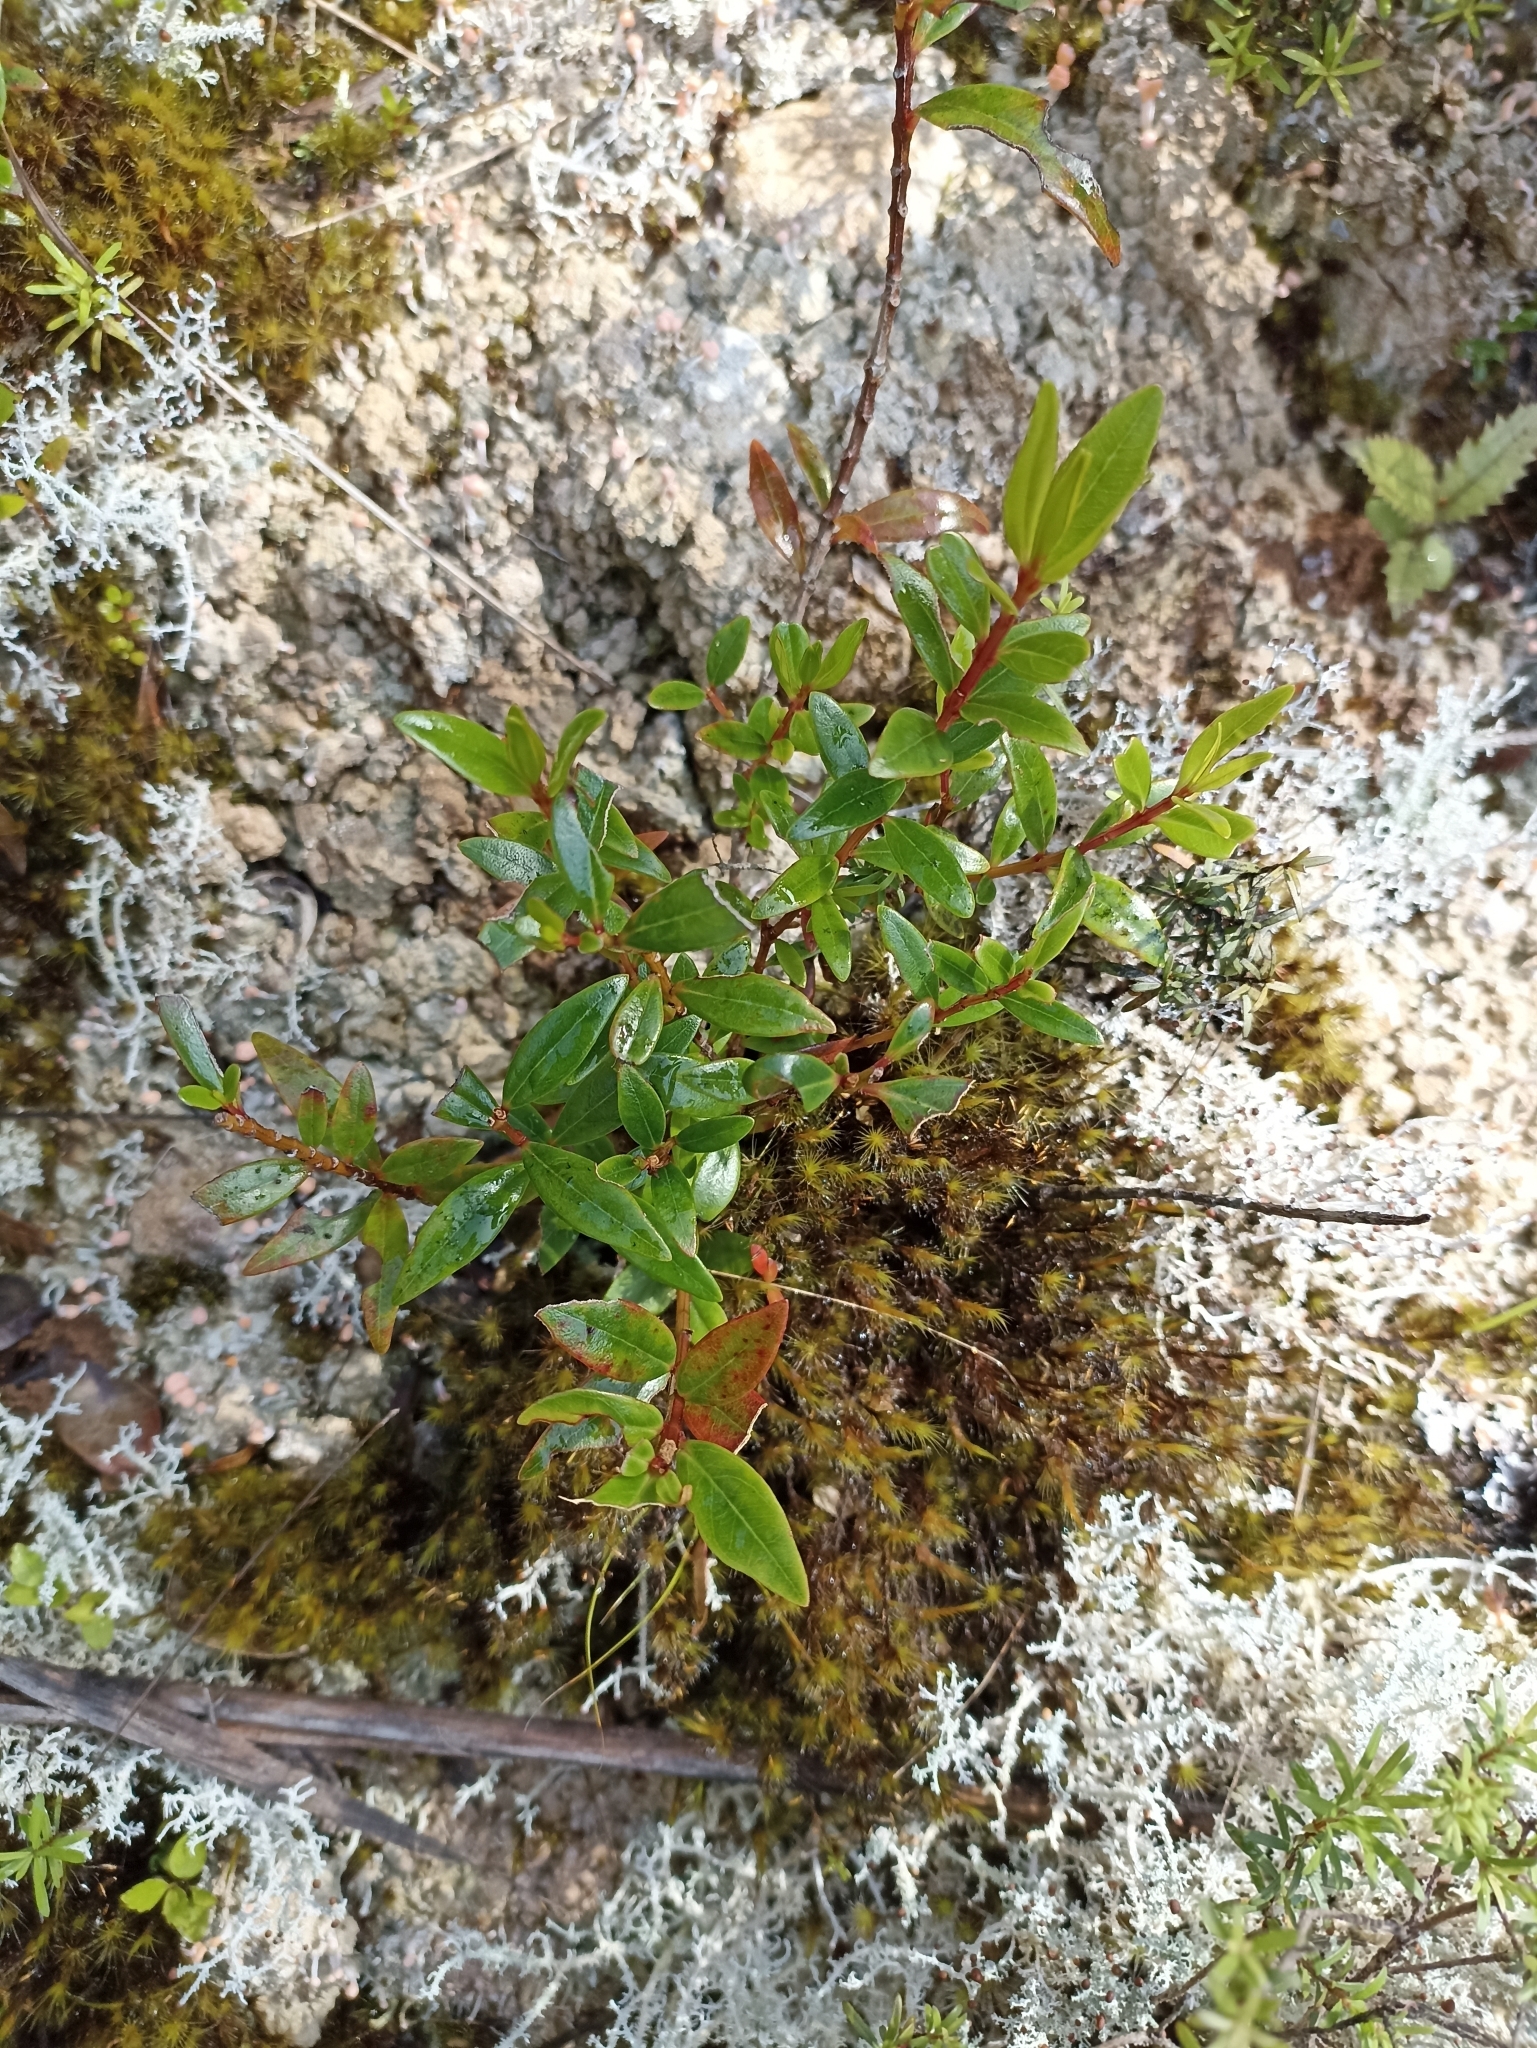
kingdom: Plantae
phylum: Tracheophyta
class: Magnoliopsida
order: Myrtales
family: Myrtaceae
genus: Metrosideros
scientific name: Metrosideros umbellata
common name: Southern rata
